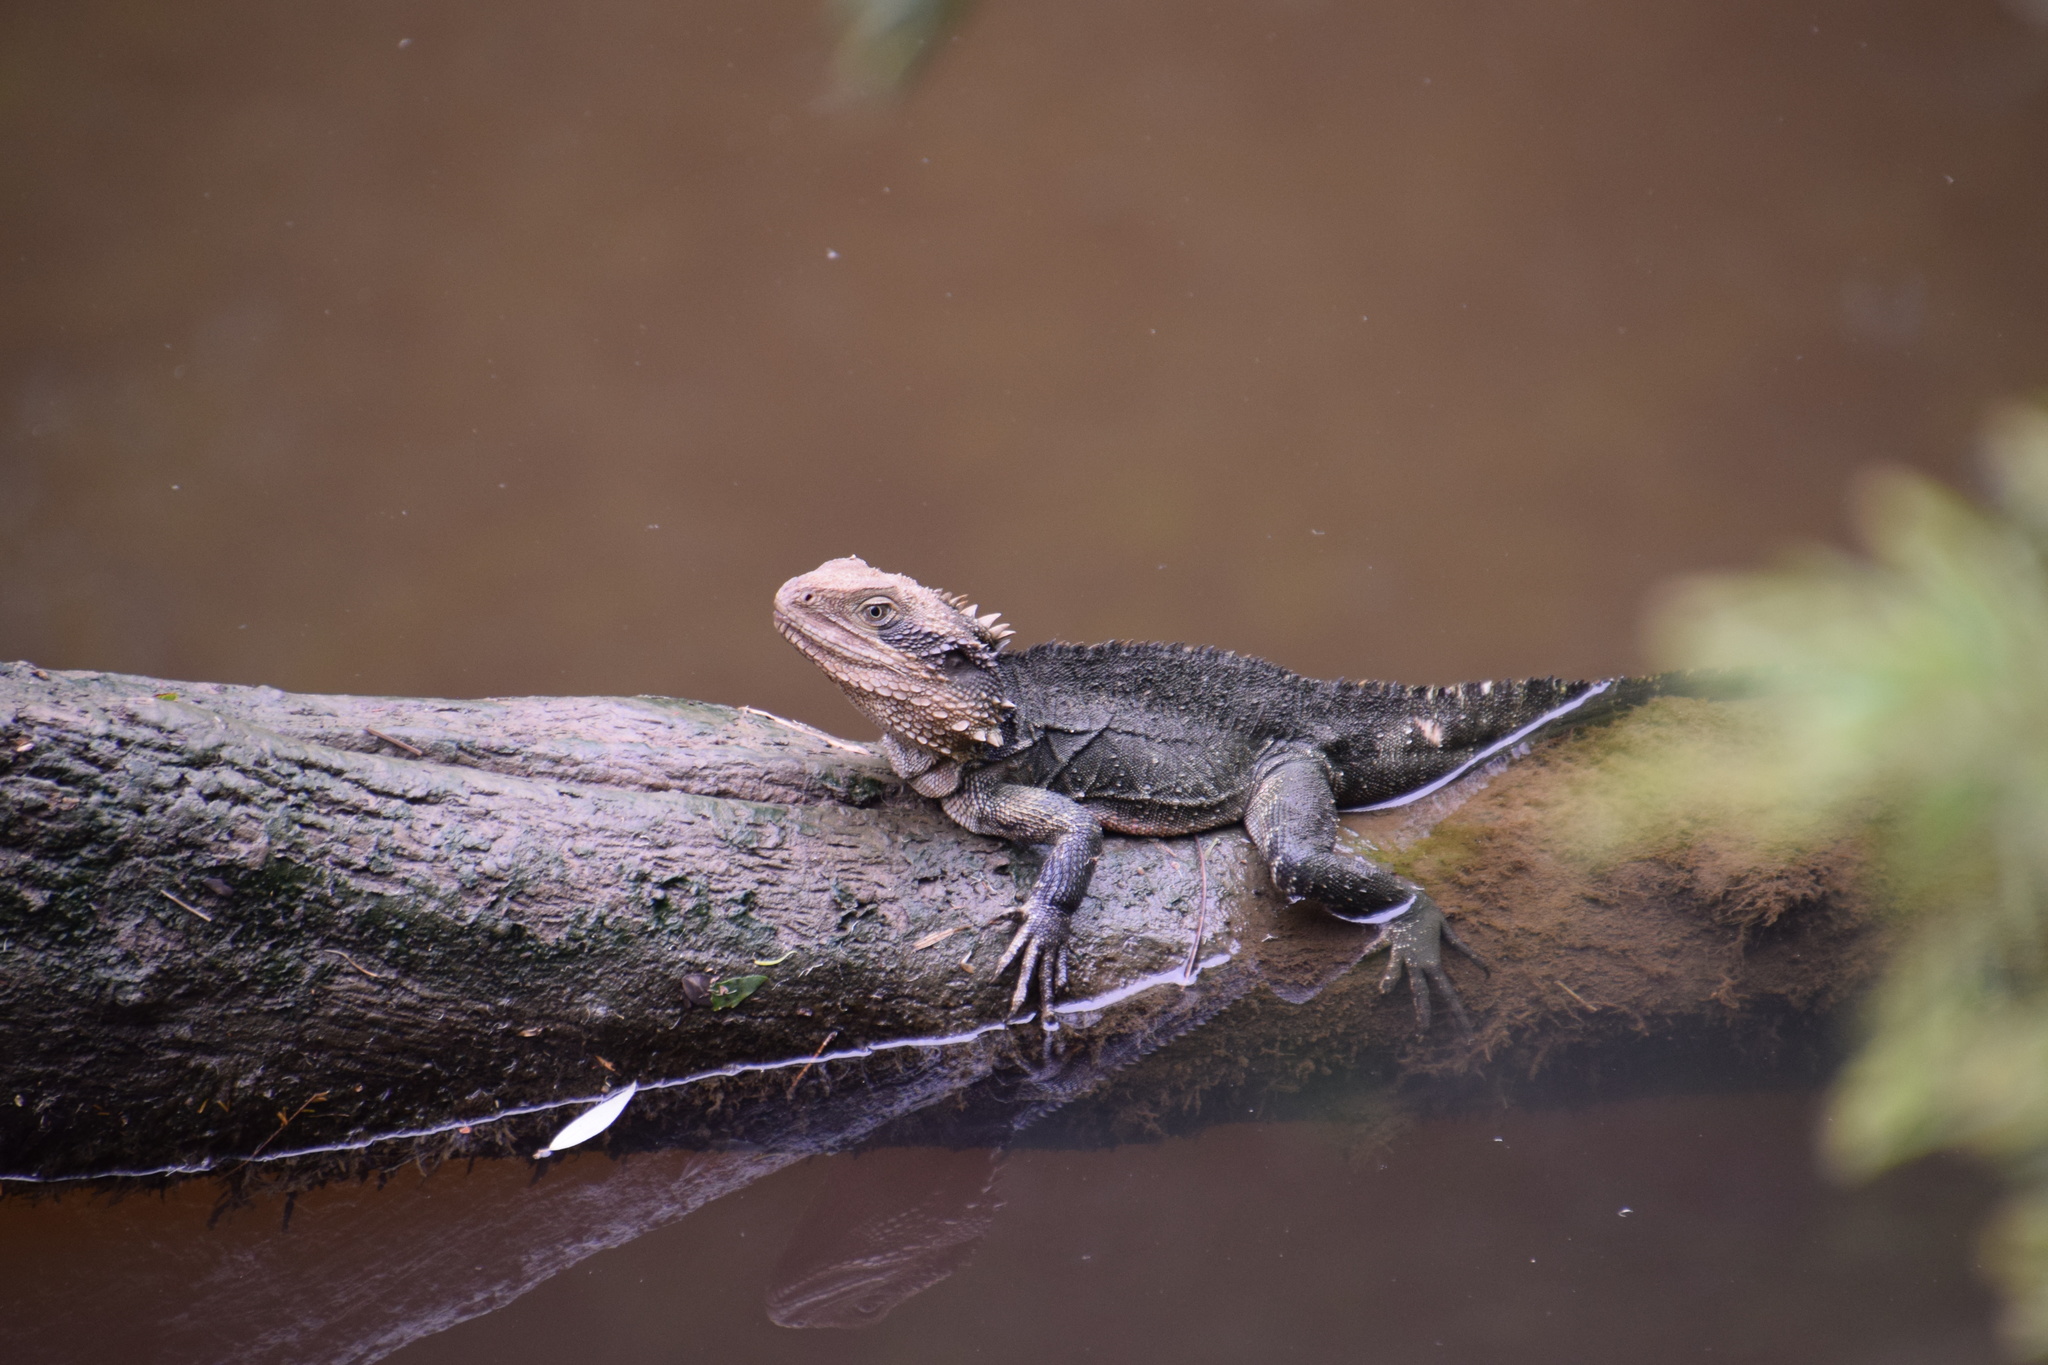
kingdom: Animalia
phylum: Chordata
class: Squamata
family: Agamidae
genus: Intellagama
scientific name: Intellagama lesueurii
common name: Eastern water dragon
